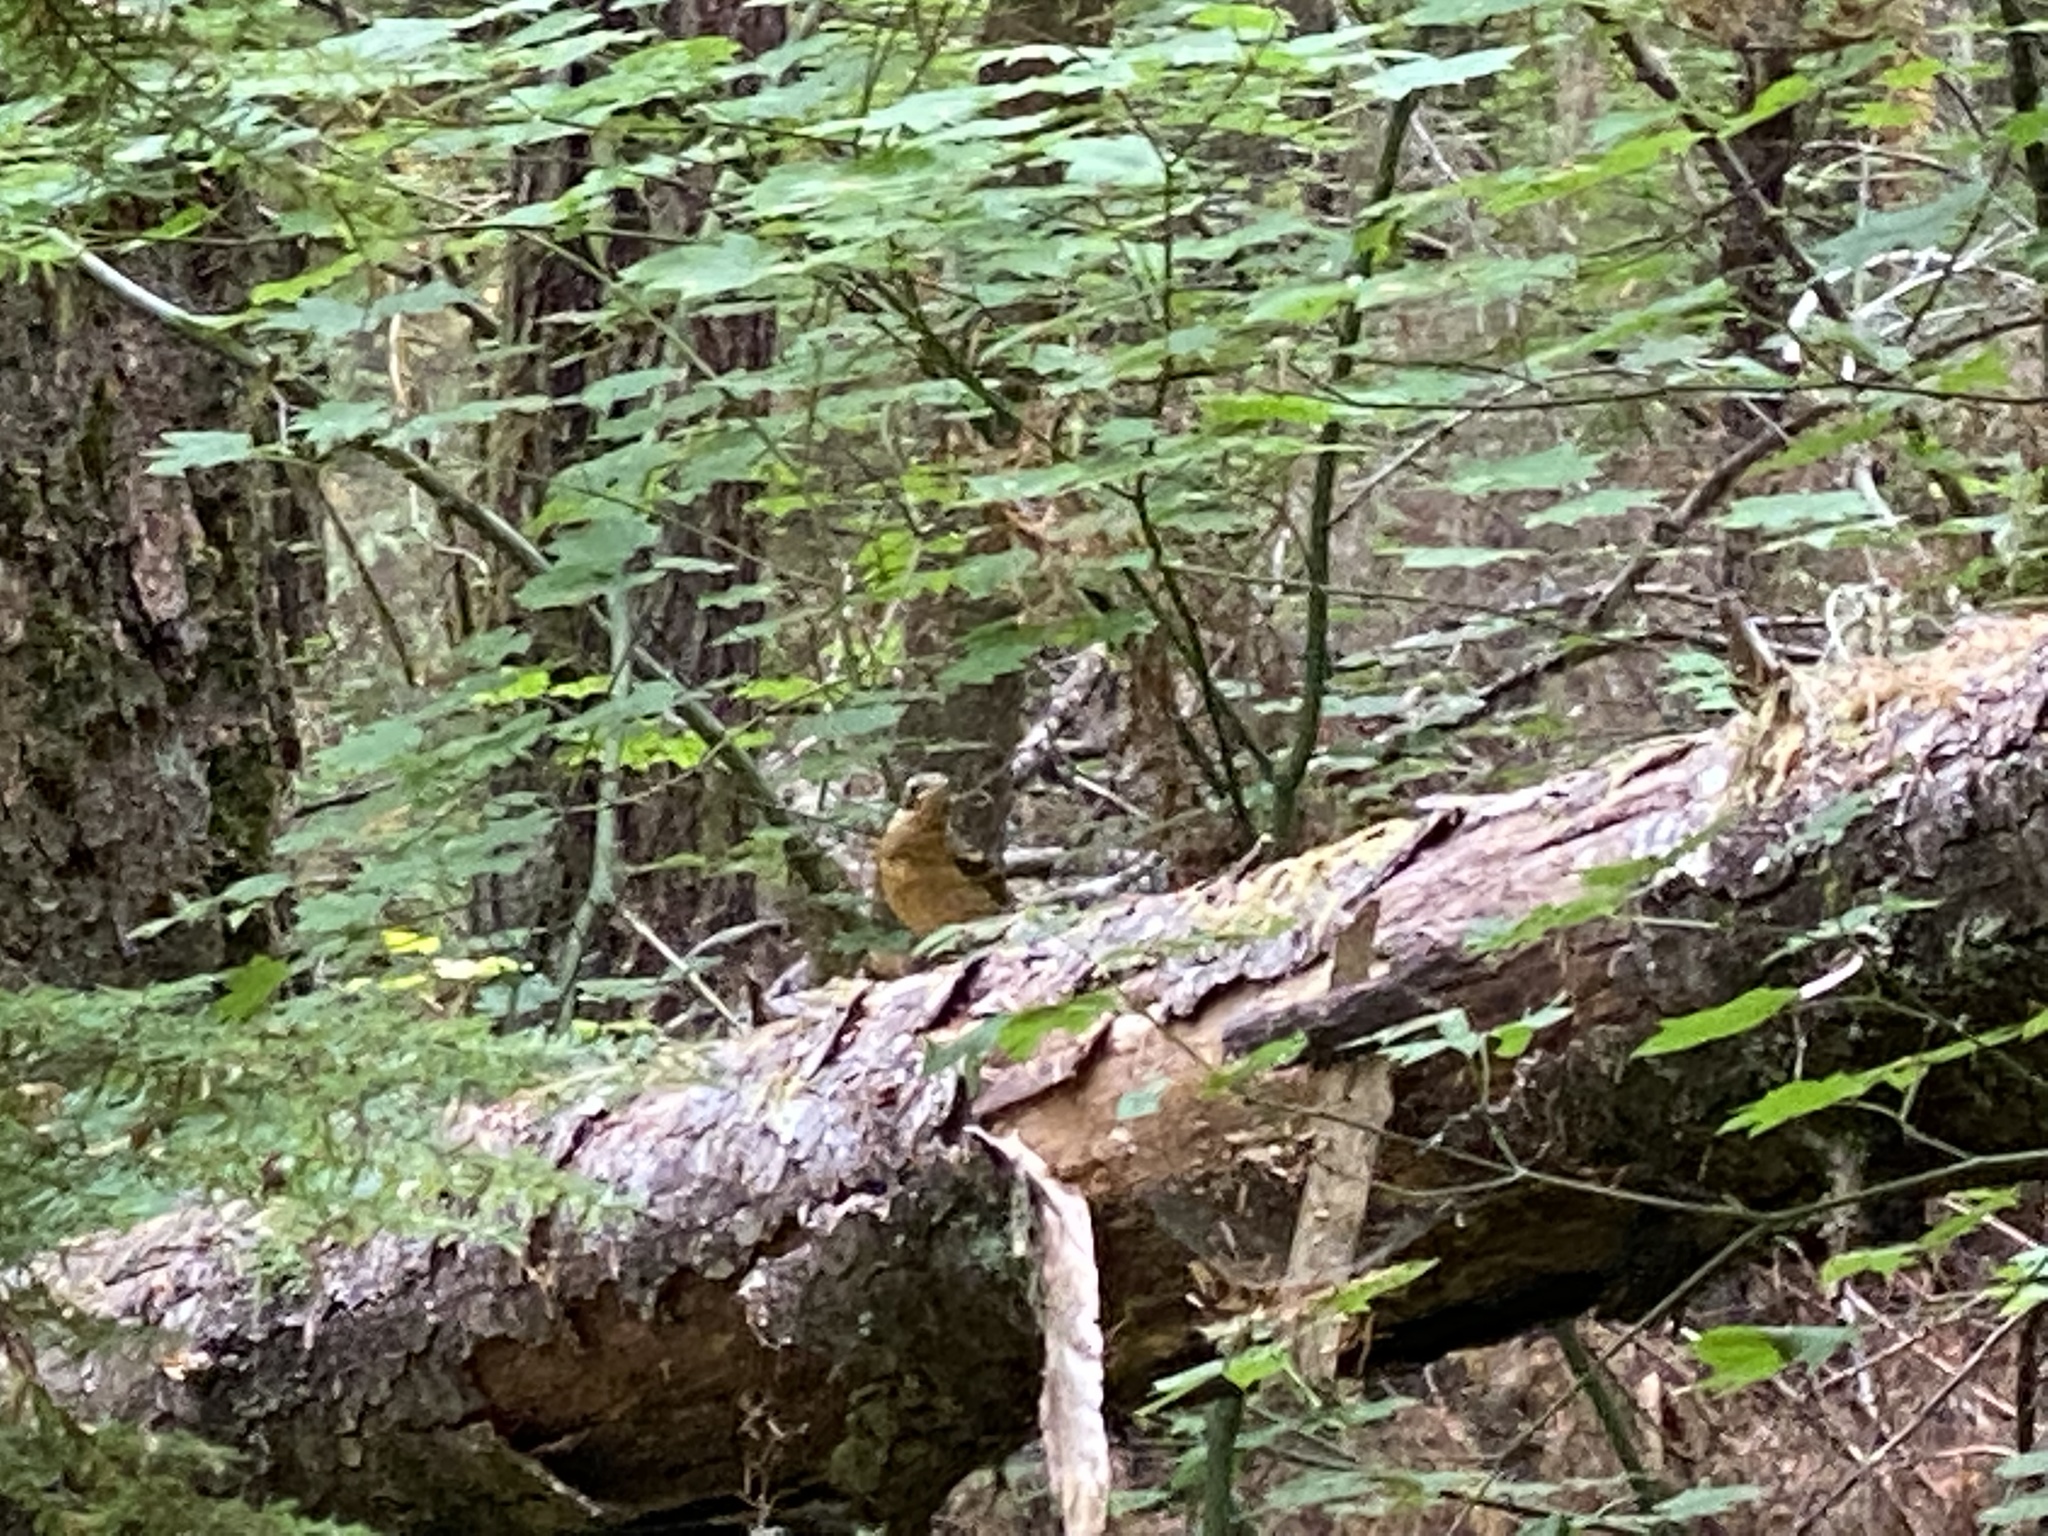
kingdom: Animalia
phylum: Chordata
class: Aves
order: Passeriformes
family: Turdidae
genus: Ixoreus
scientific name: Ixoreus naevius
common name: Varied thrush
